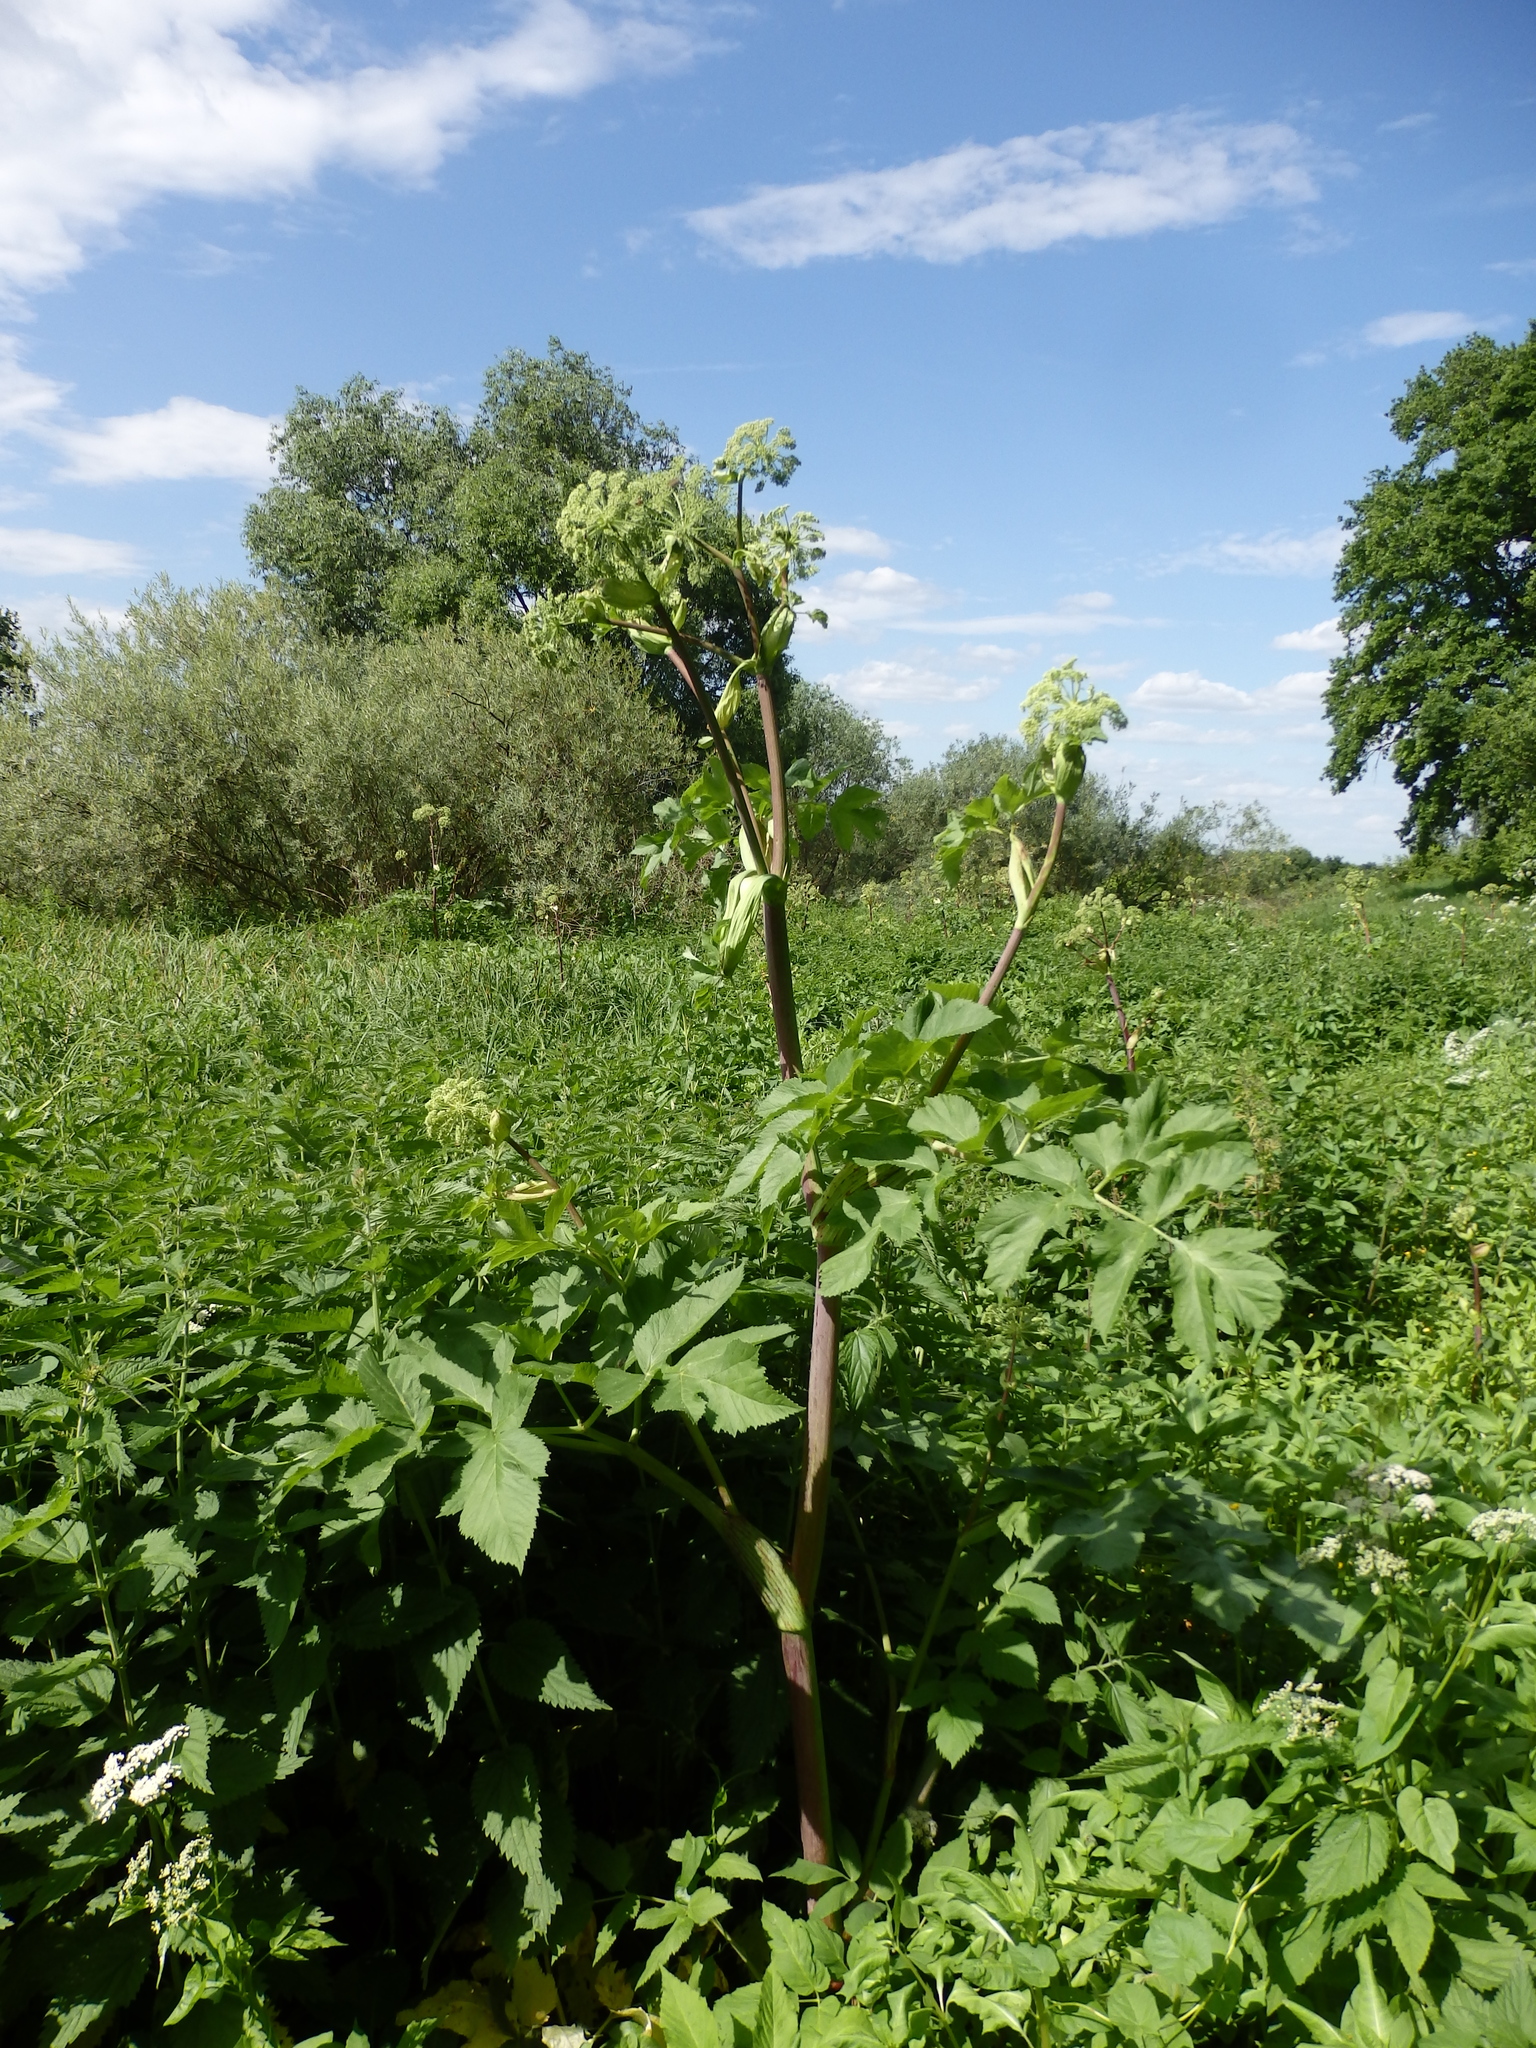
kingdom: Plantae
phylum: Tracheophyta
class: Magnoliopsida
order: Apiales
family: Apiaceae
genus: Angelica
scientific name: Angelica archangelica
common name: Garden angelica
